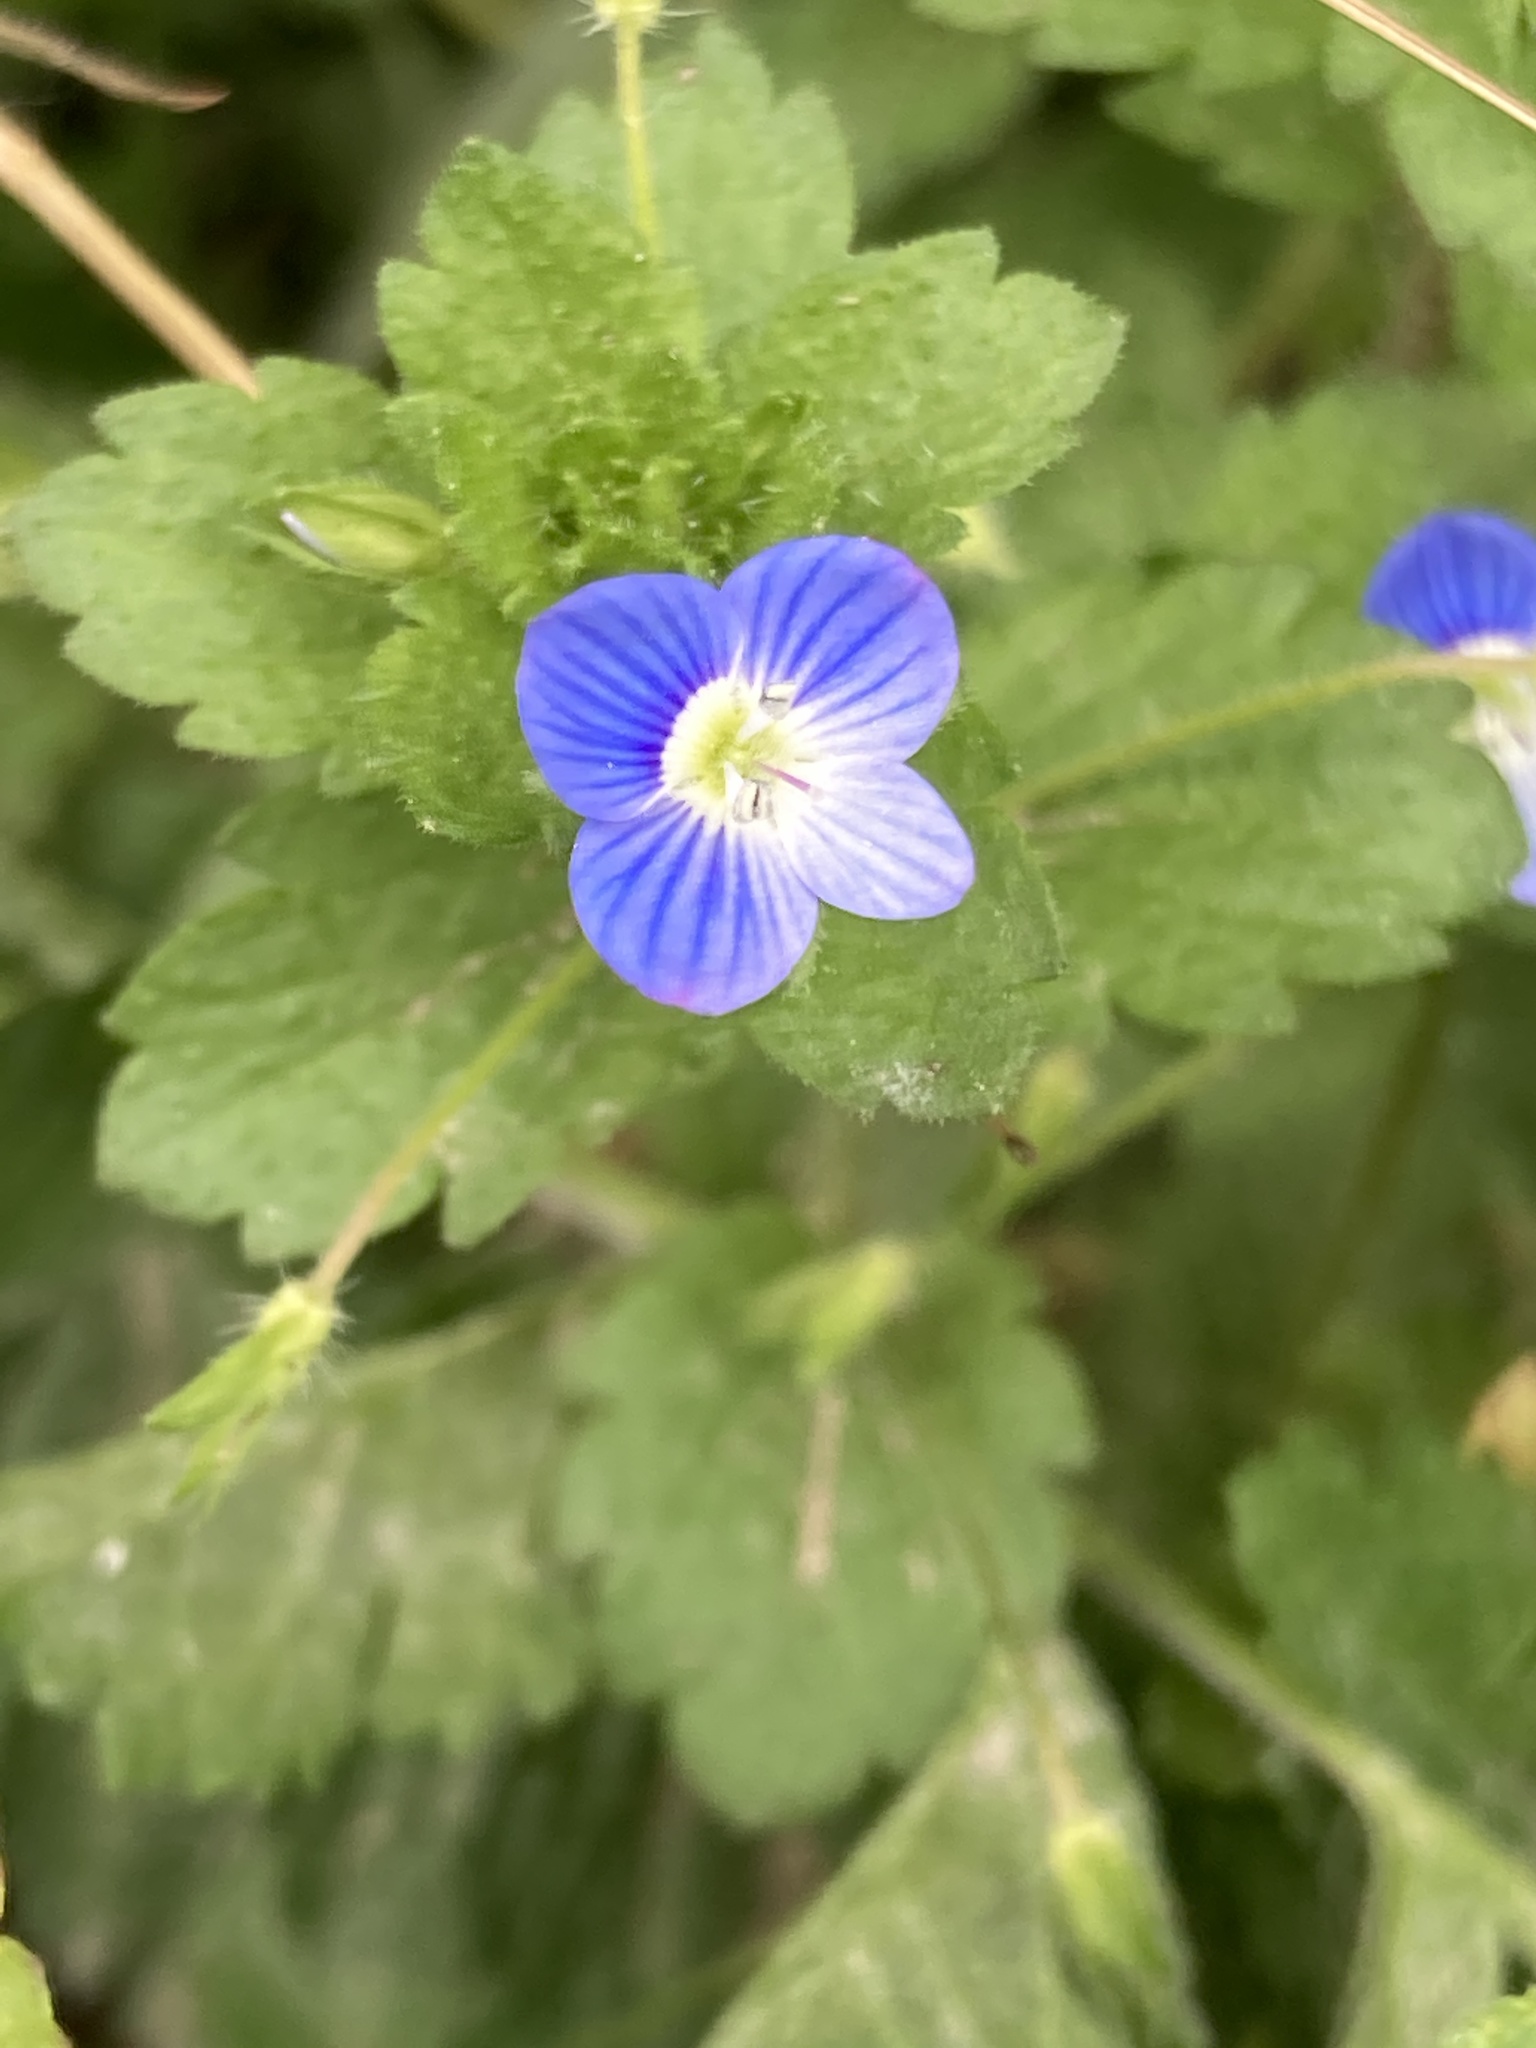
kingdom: Plantae
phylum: Tracheophyta
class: Magnoliopsida
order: Lamiales
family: Plantaginaceae
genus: Veronica
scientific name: Veronica persica
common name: Common field-speedwell
